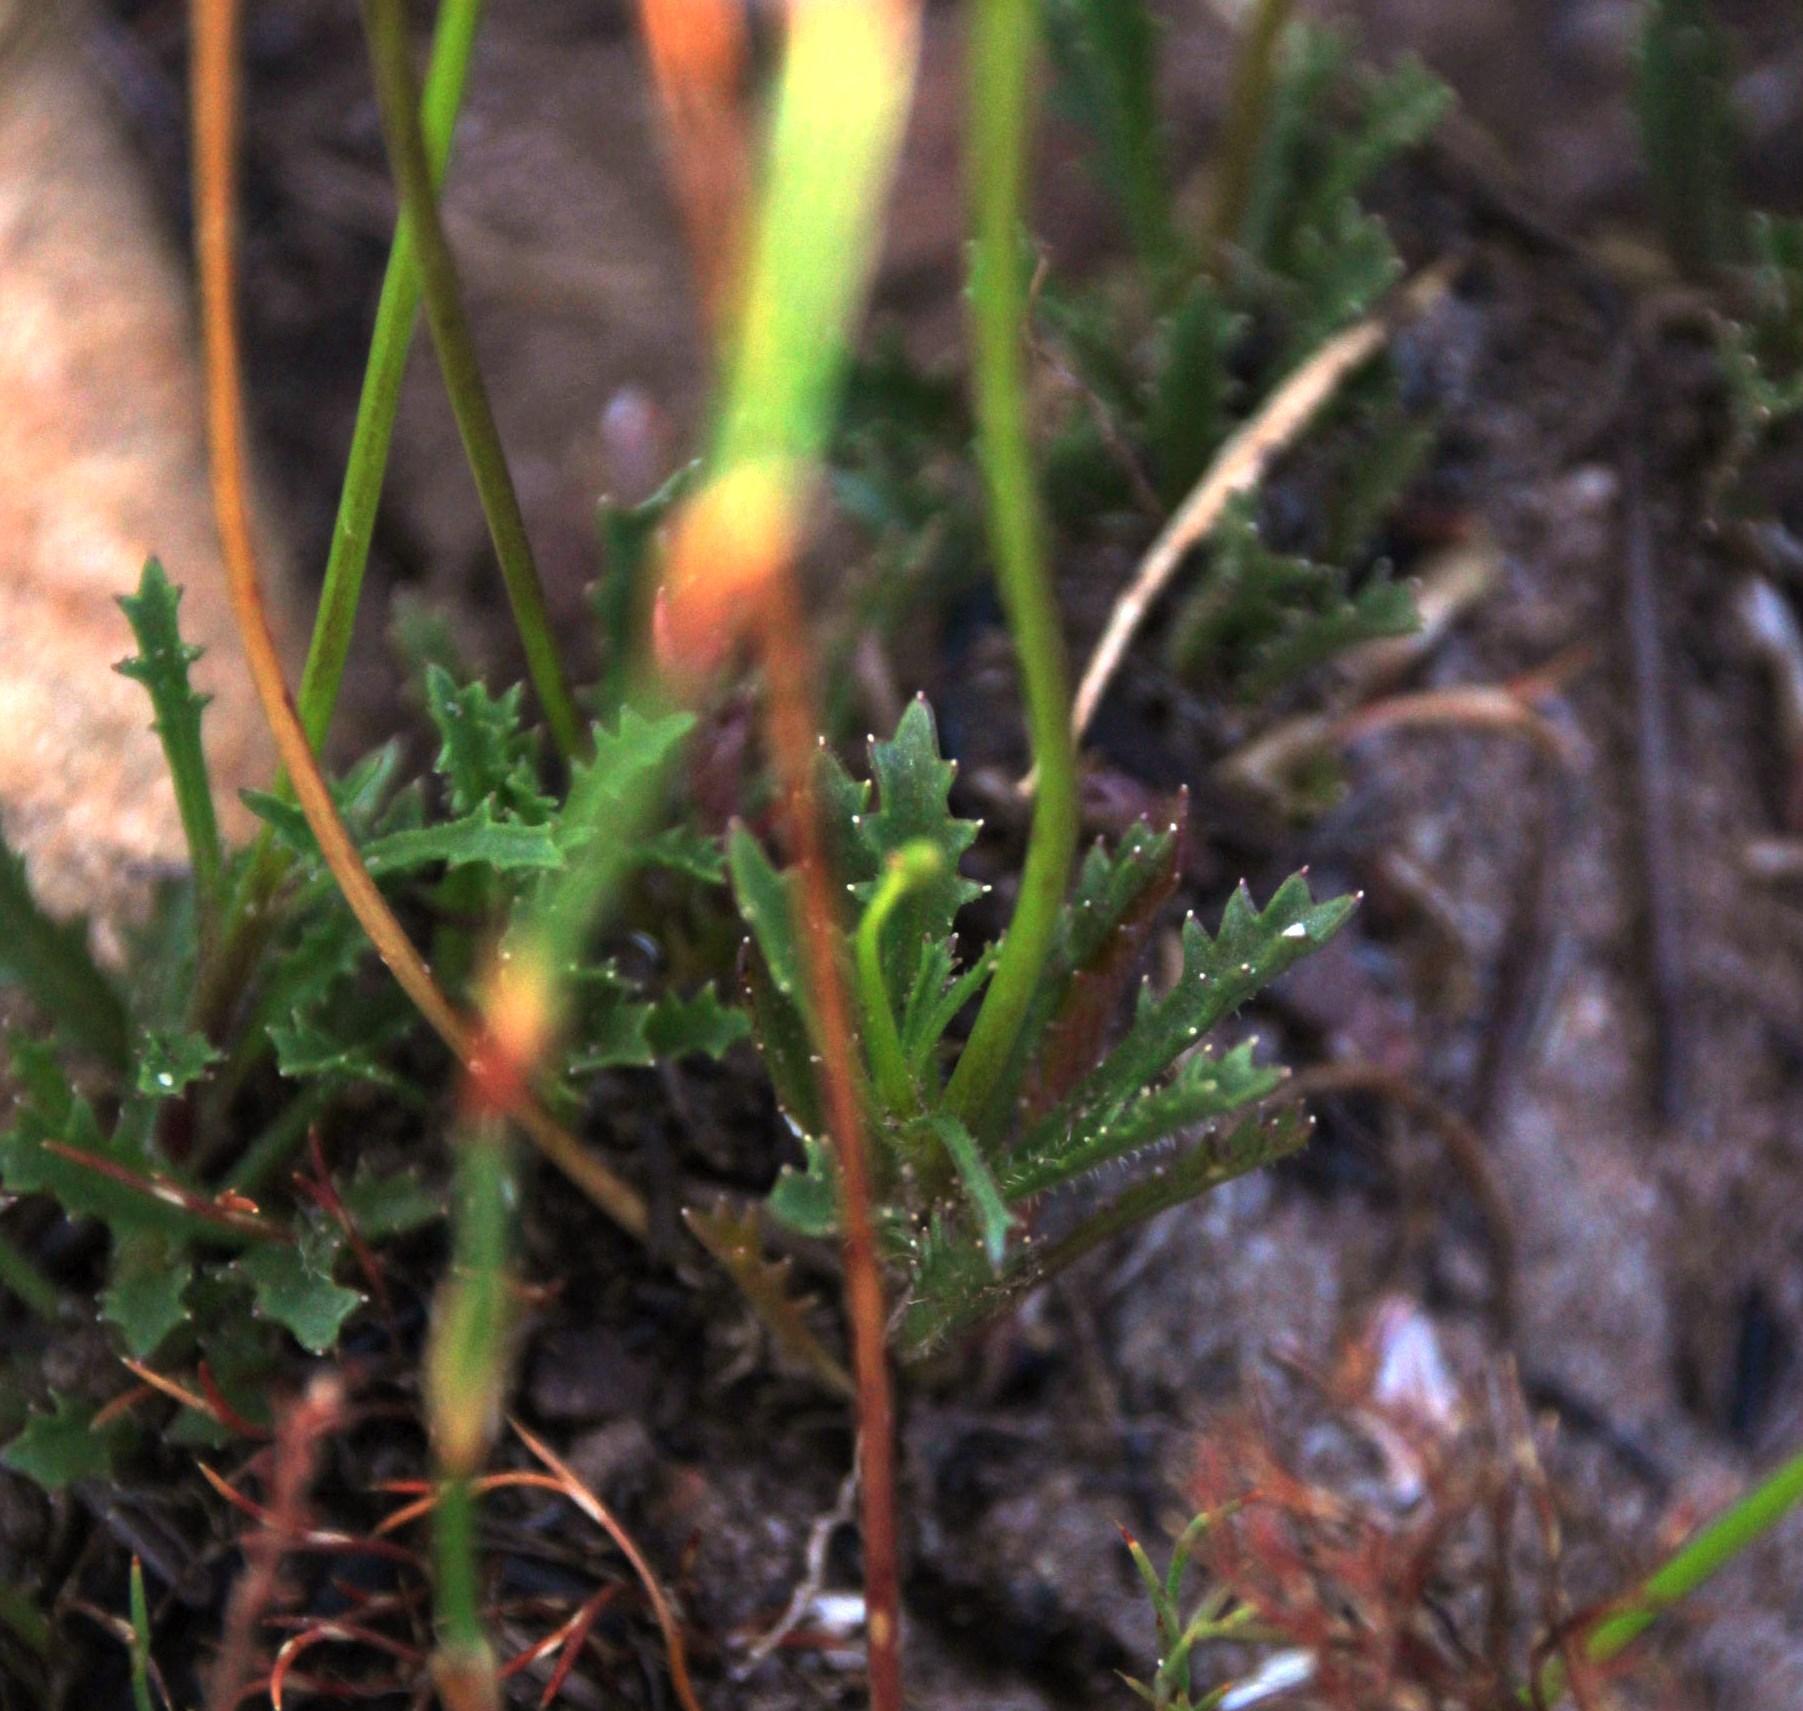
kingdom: Plantae
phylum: Tracheophyta
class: Magnoliopsida
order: Asterales
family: Campanulaceae
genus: Lobelia
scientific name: Lobelia coronopifolia
